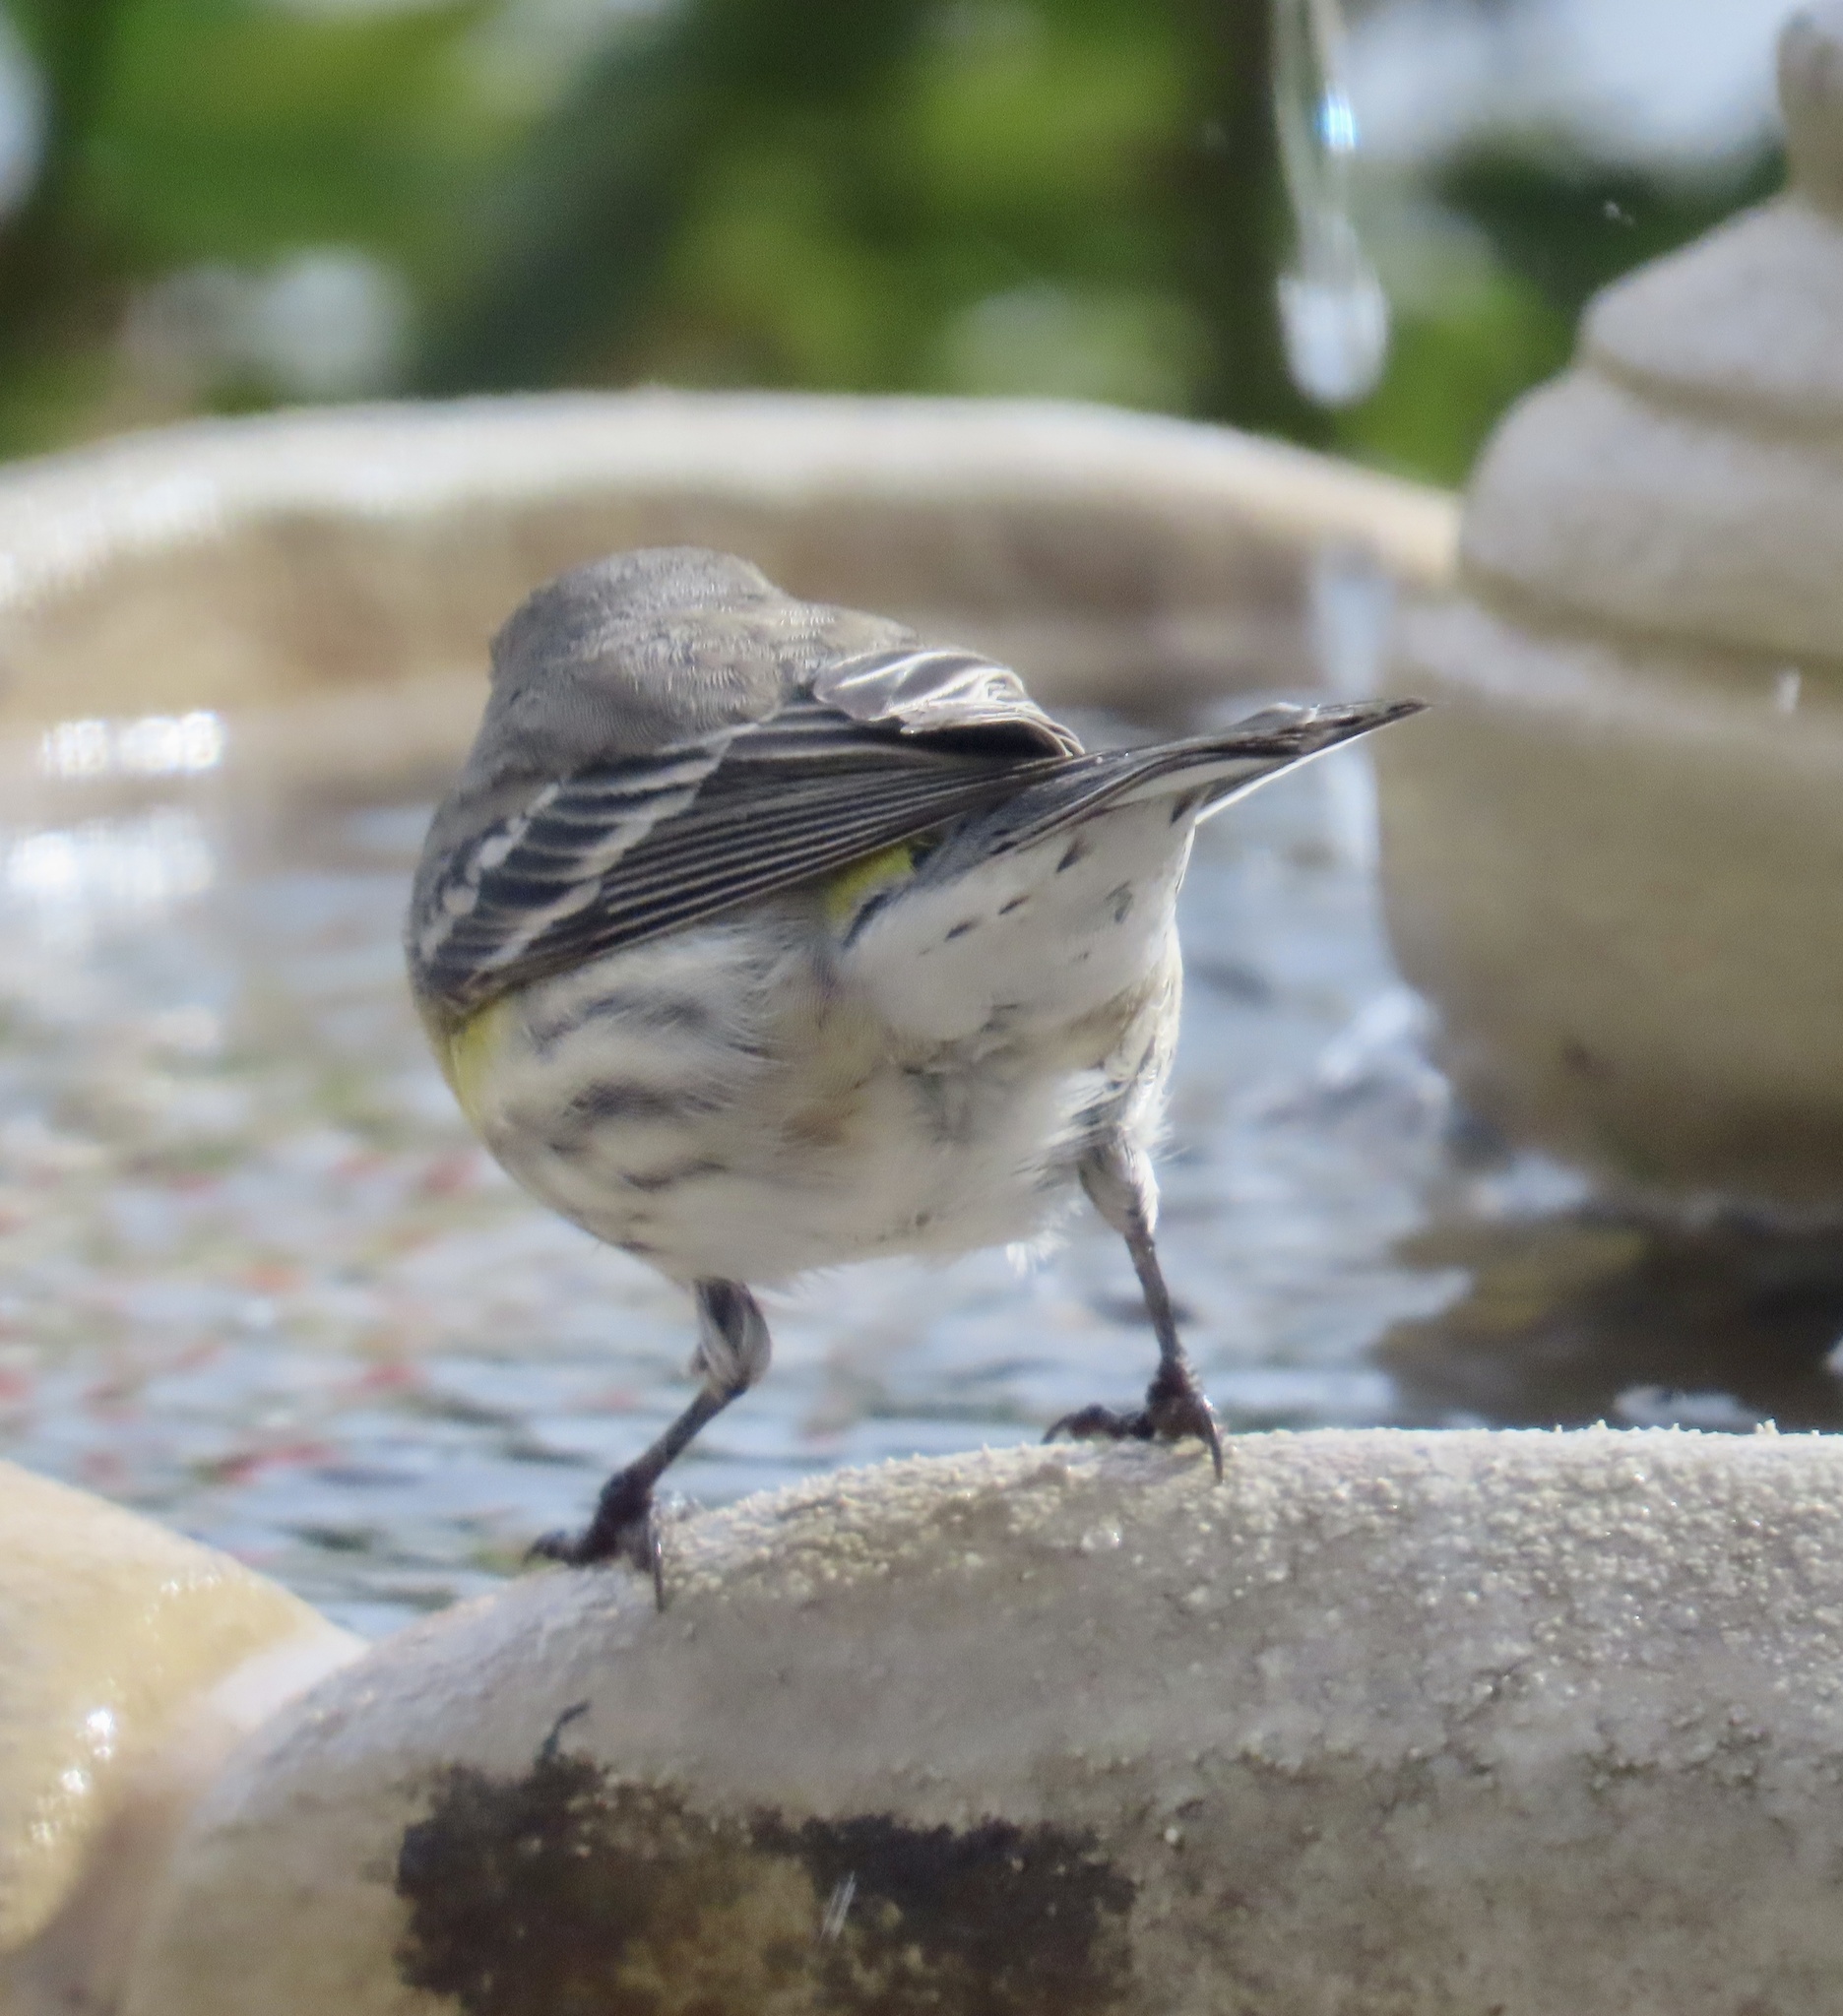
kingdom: Animalia
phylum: Chordata
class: Aves
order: Passeriformes
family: Parulidae
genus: Setophaga
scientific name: Setophaga coronata
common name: Myrtle warbler
